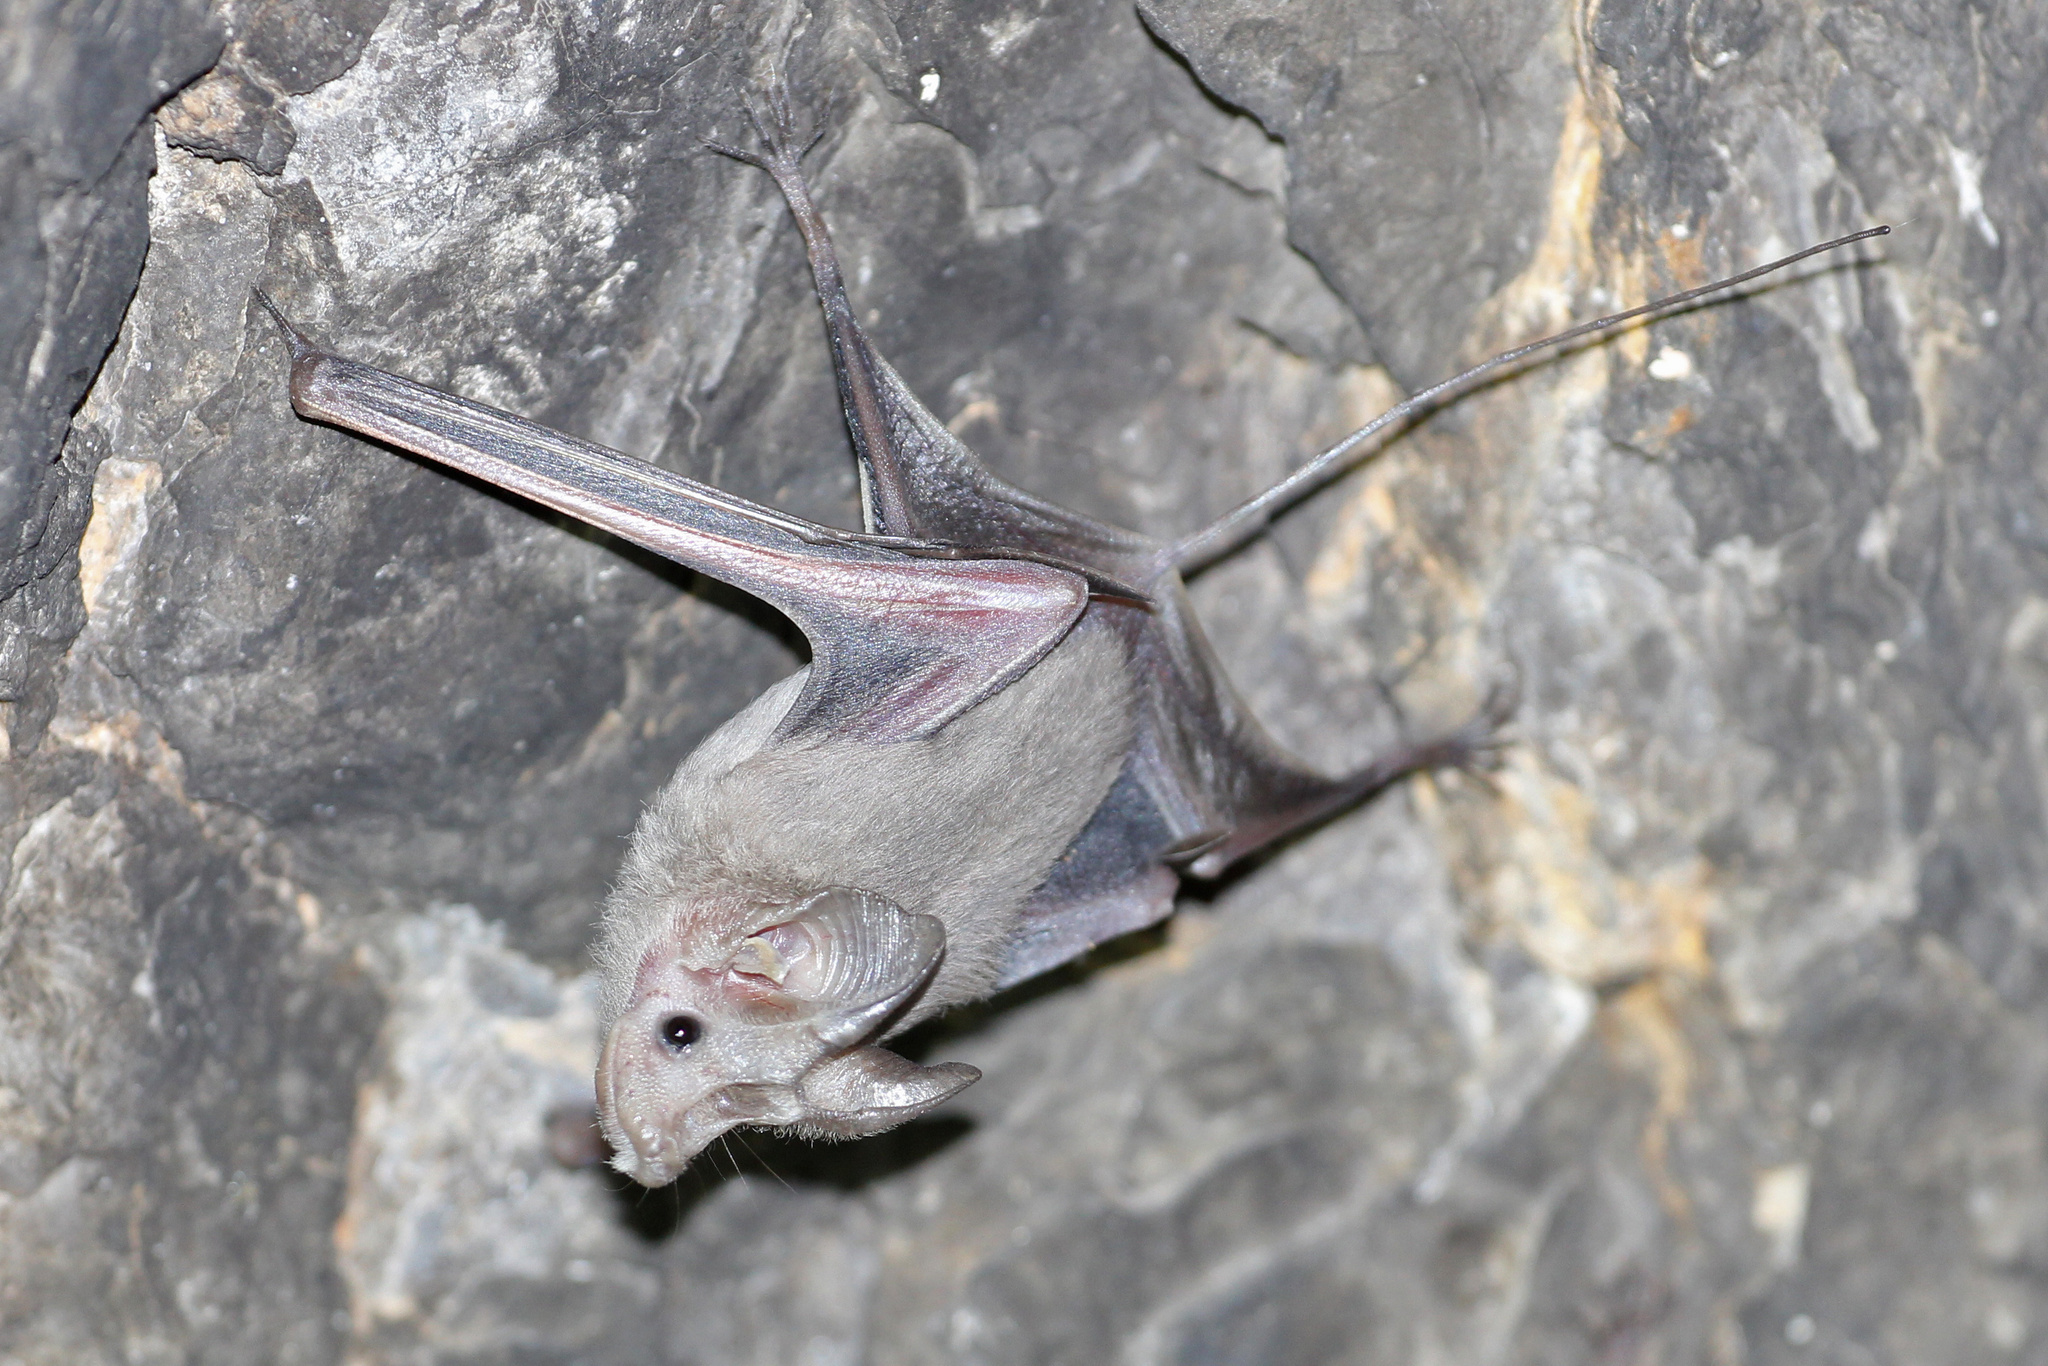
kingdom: Animalia
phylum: Chordata
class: Mammalia
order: Chiroptera
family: Rhinopomatidae
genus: Rhinopoma
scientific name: Rhinopoma muscatellum
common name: Small mouse-tailed bat
